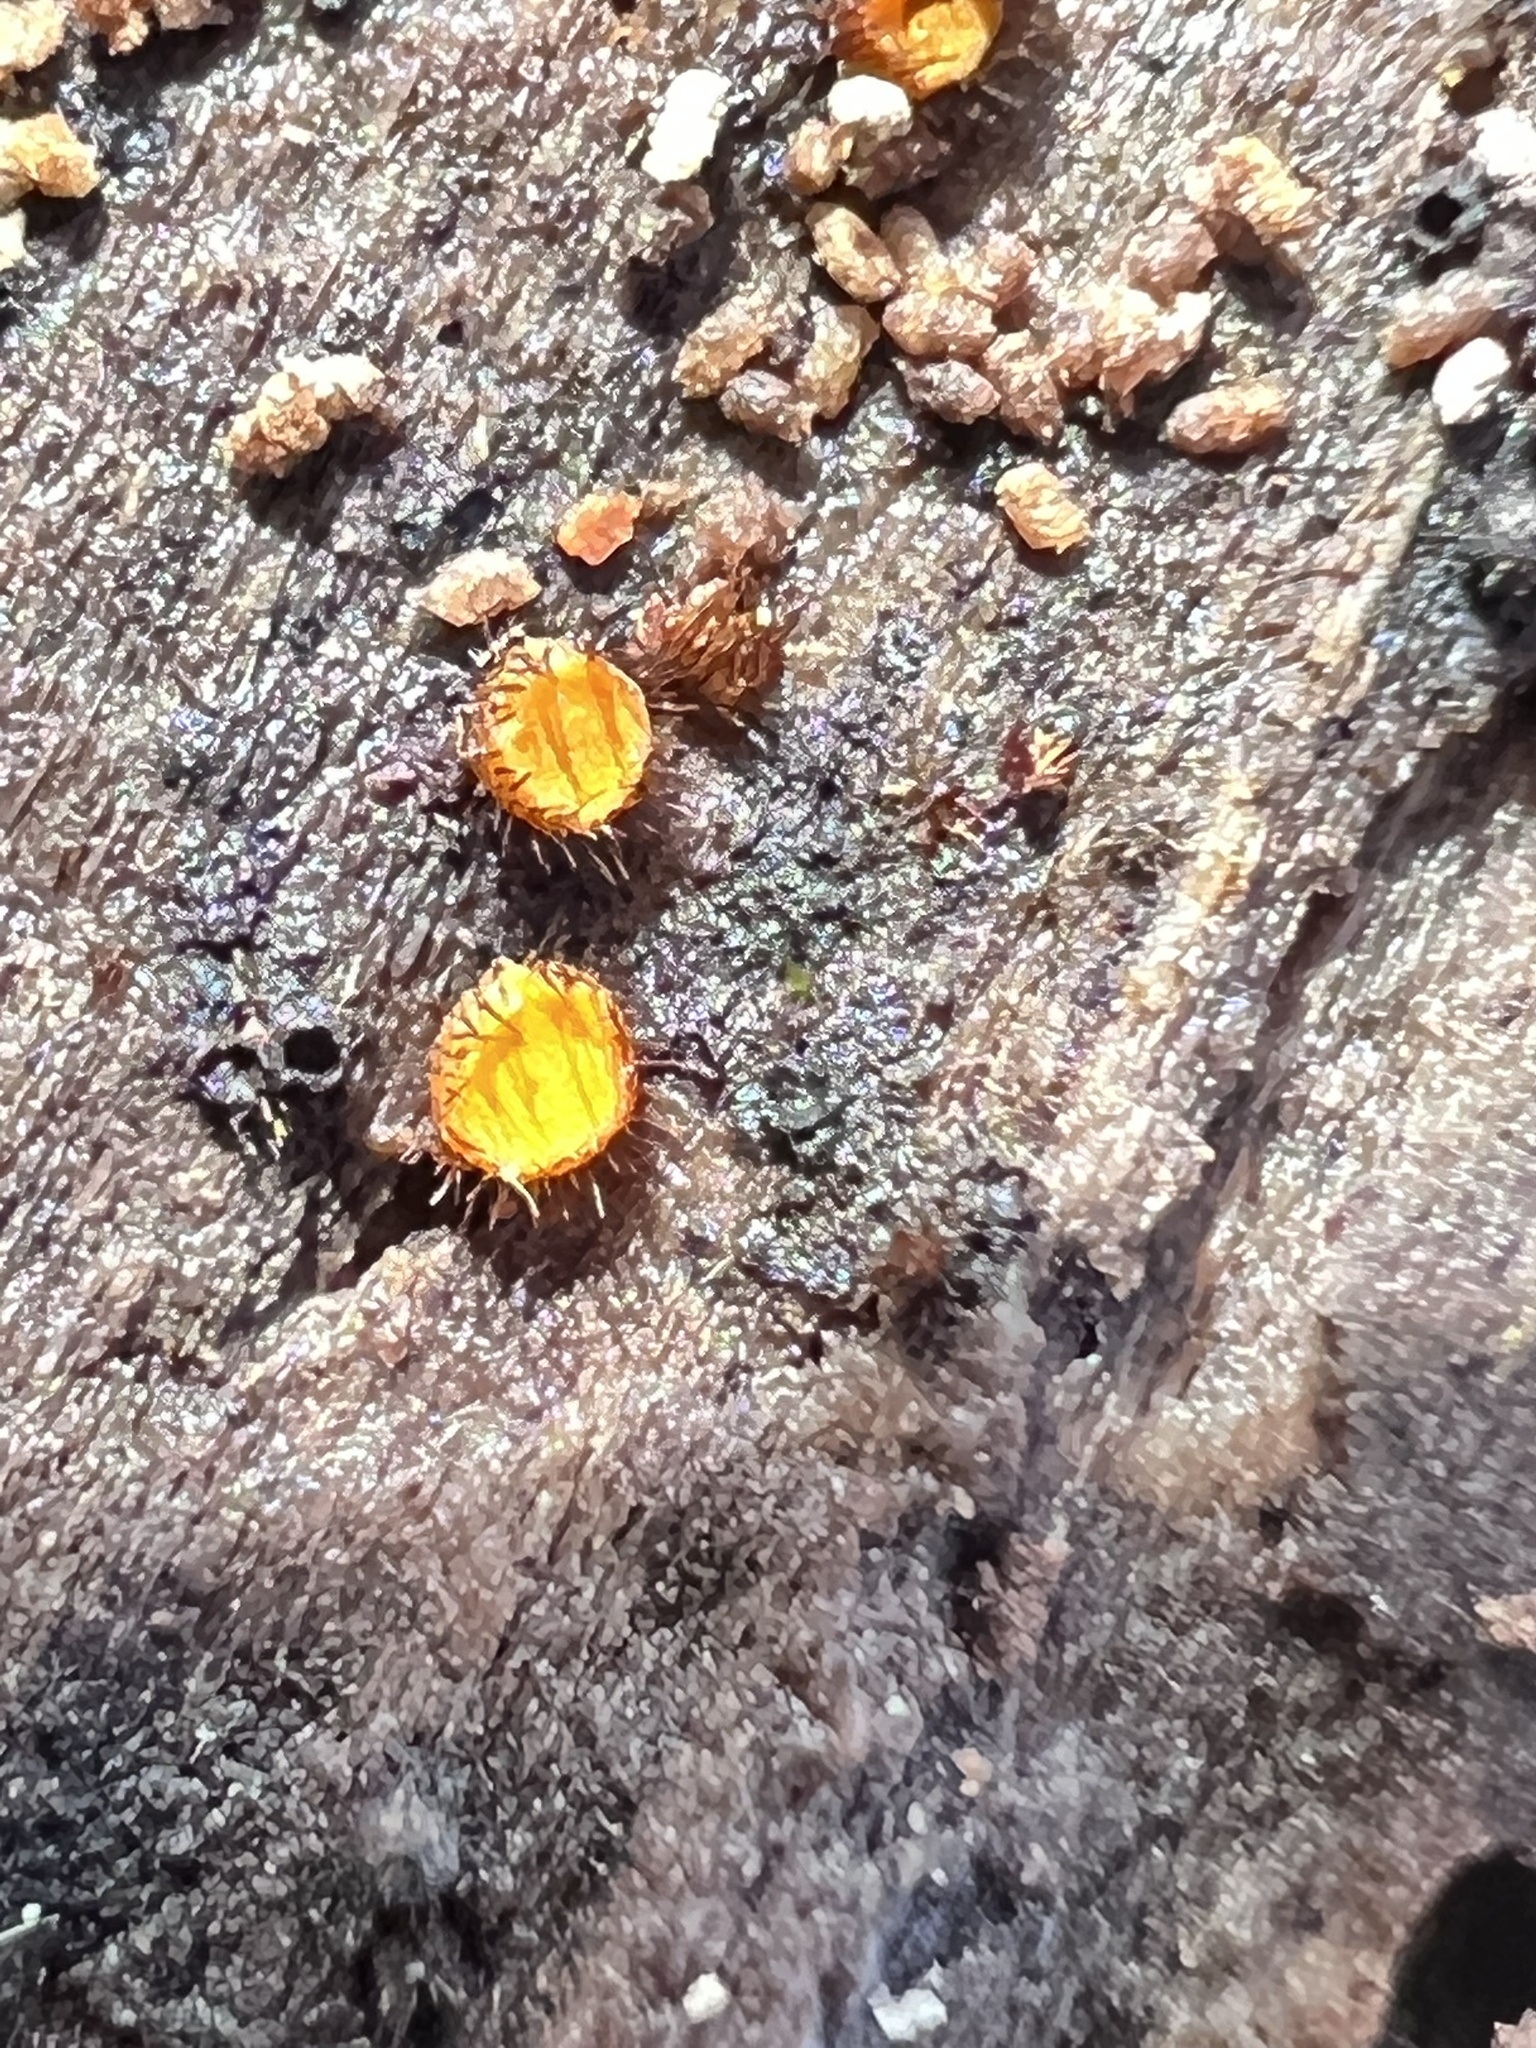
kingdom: Fungi
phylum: Ascomycota
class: Pezizomycetes
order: Pezizales
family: Pyronemataceae
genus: Scutellinia
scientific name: Scutellinia setosa
